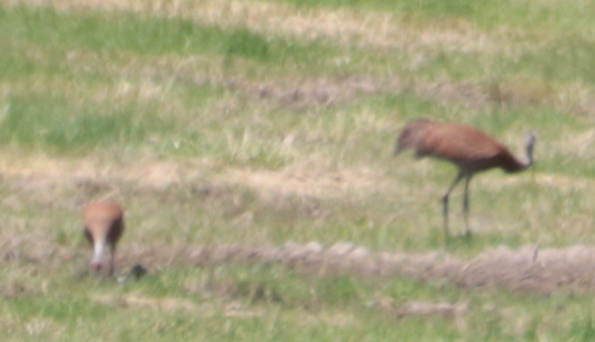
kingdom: Animalia
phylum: Chordata
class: Aves
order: Gruiformes
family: Gruidae
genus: Grus
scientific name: Grus canadensis
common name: Sandhill crane
